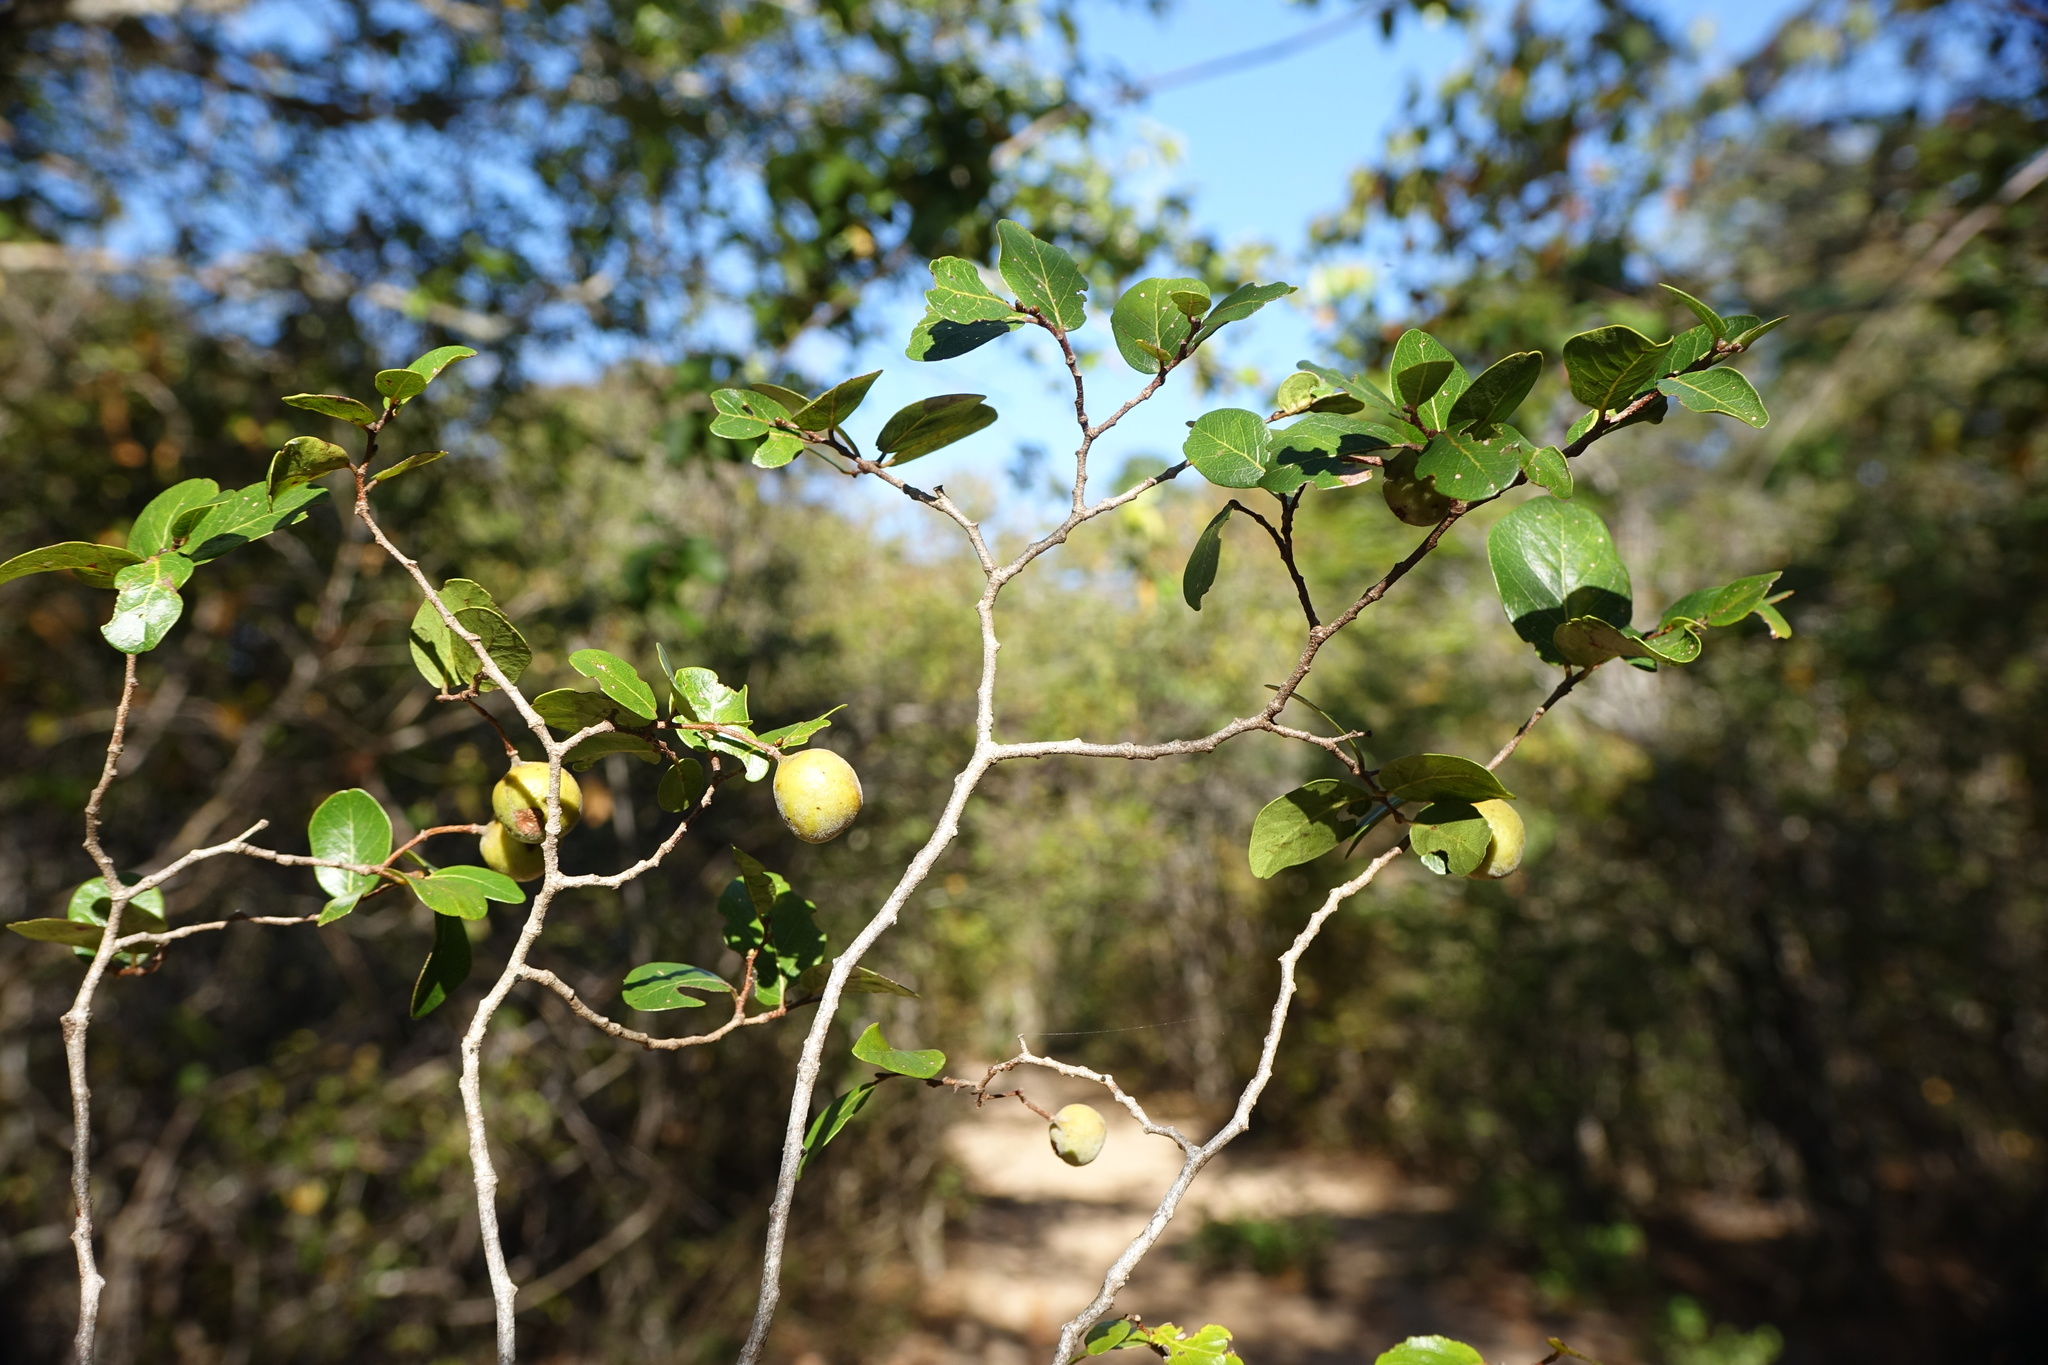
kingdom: Plantae
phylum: Tracheophyta
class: Magnoliopsida
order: Fabales
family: Fabaceae
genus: Baudouinia
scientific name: Baudouinia fluggeiformis
